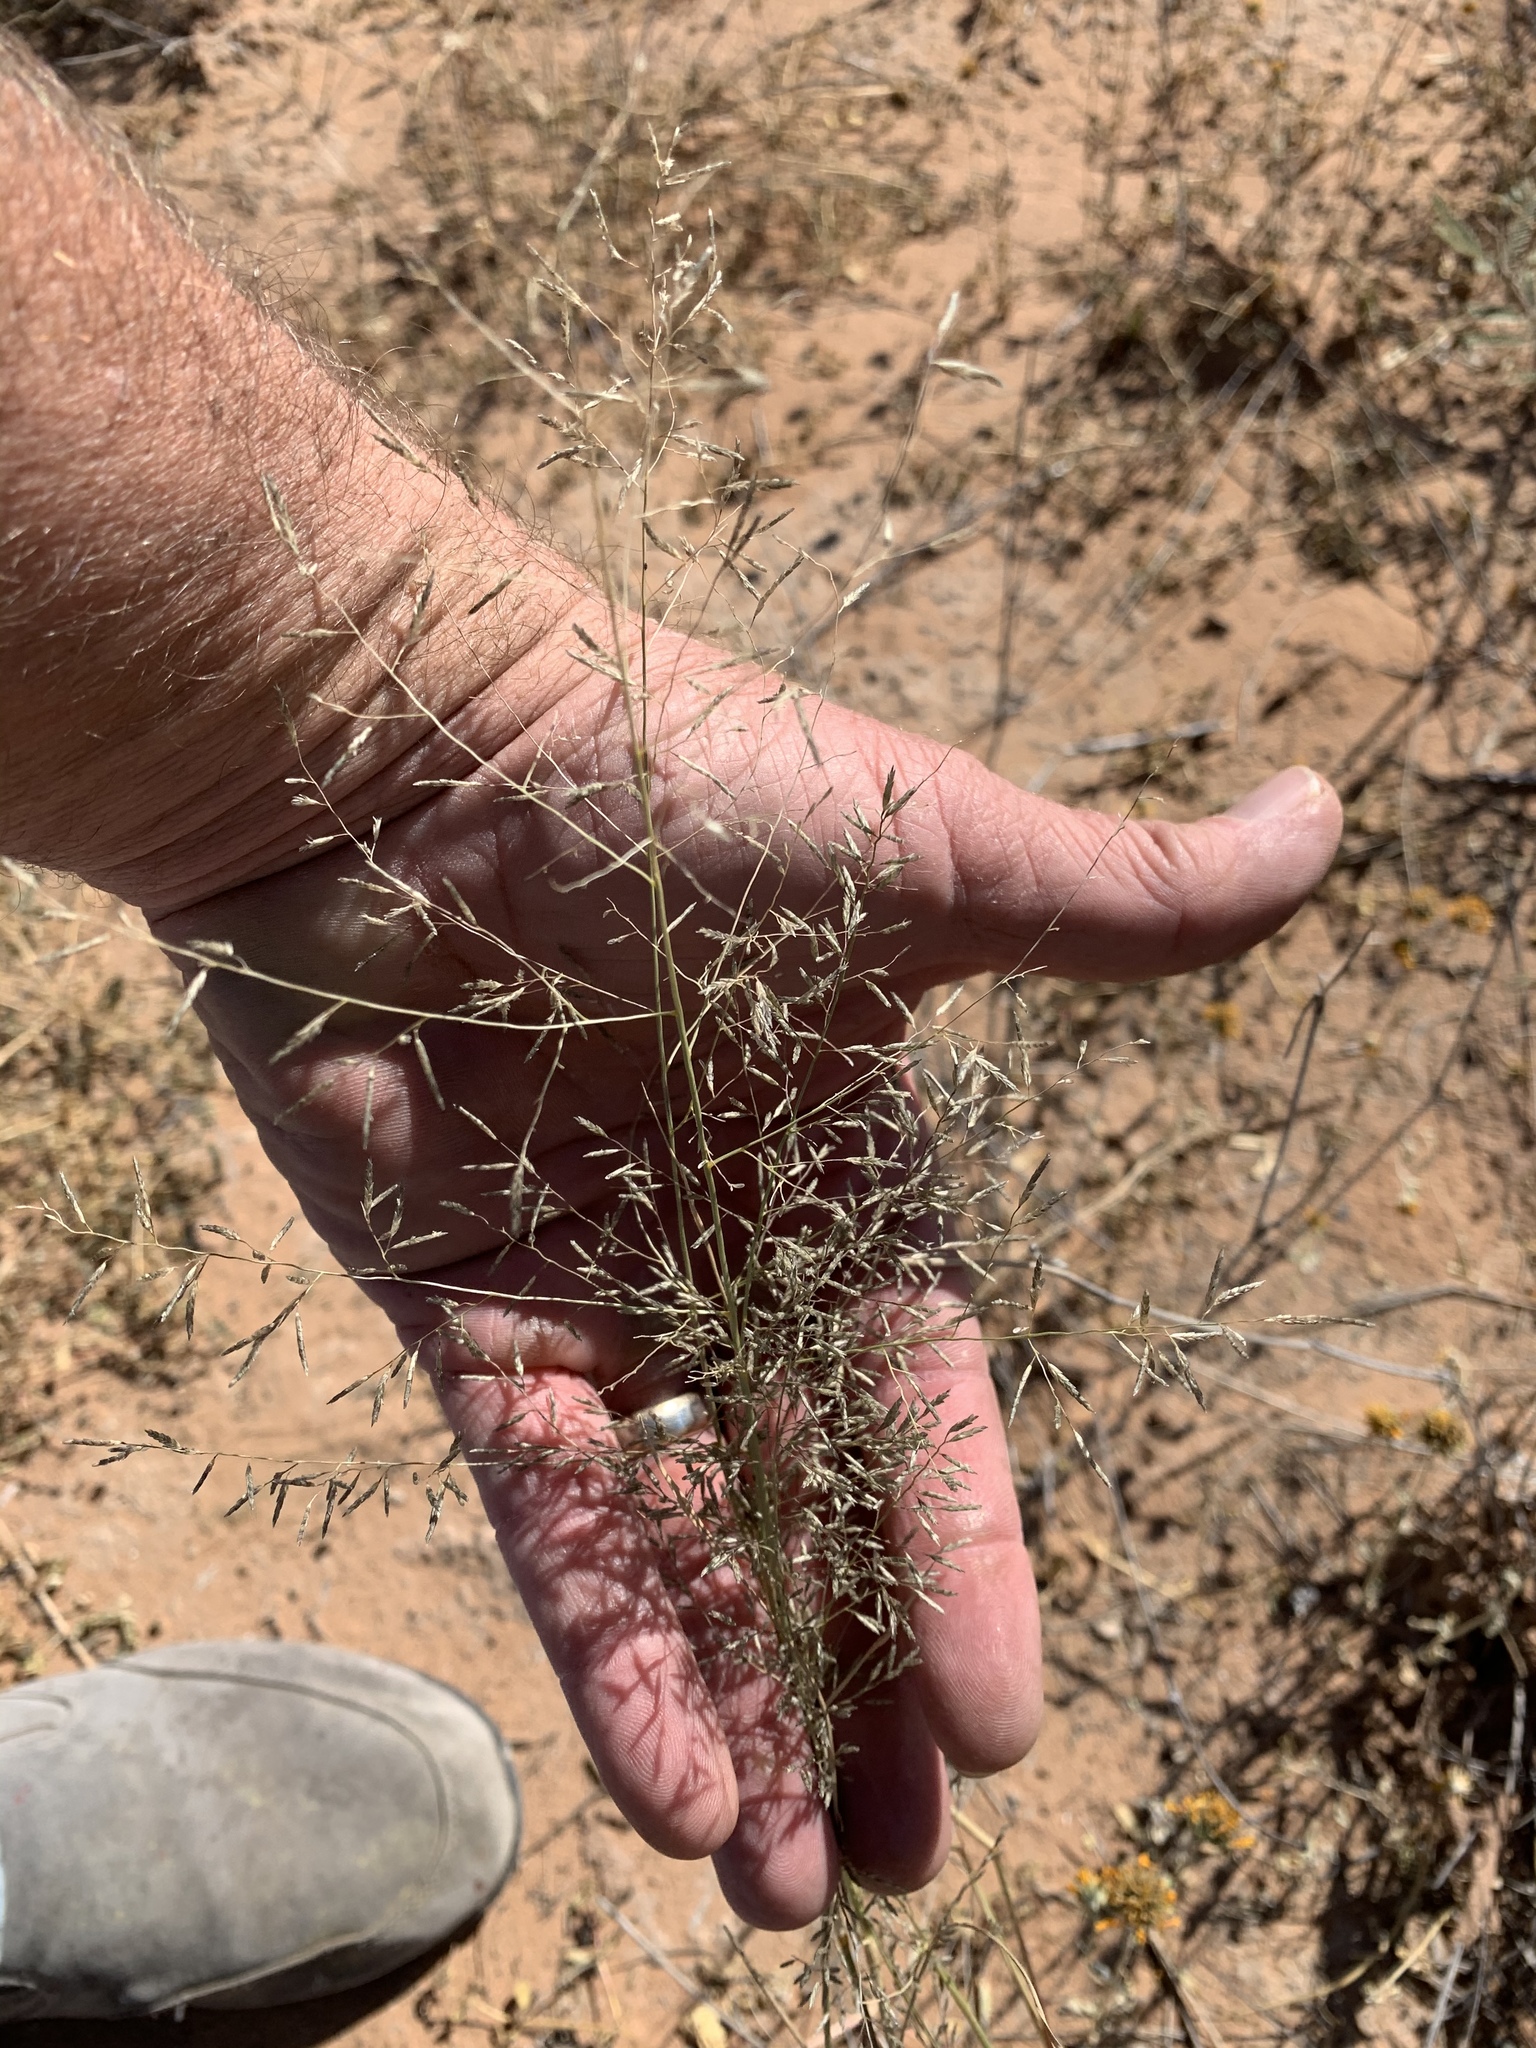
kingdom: Plantae
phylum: Tracheophyta
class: Liliopsida
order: Poales
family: Poaceae
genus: Eragrostis
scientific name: Eragrostis lehmanniana
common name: Lehmann lovegrass
